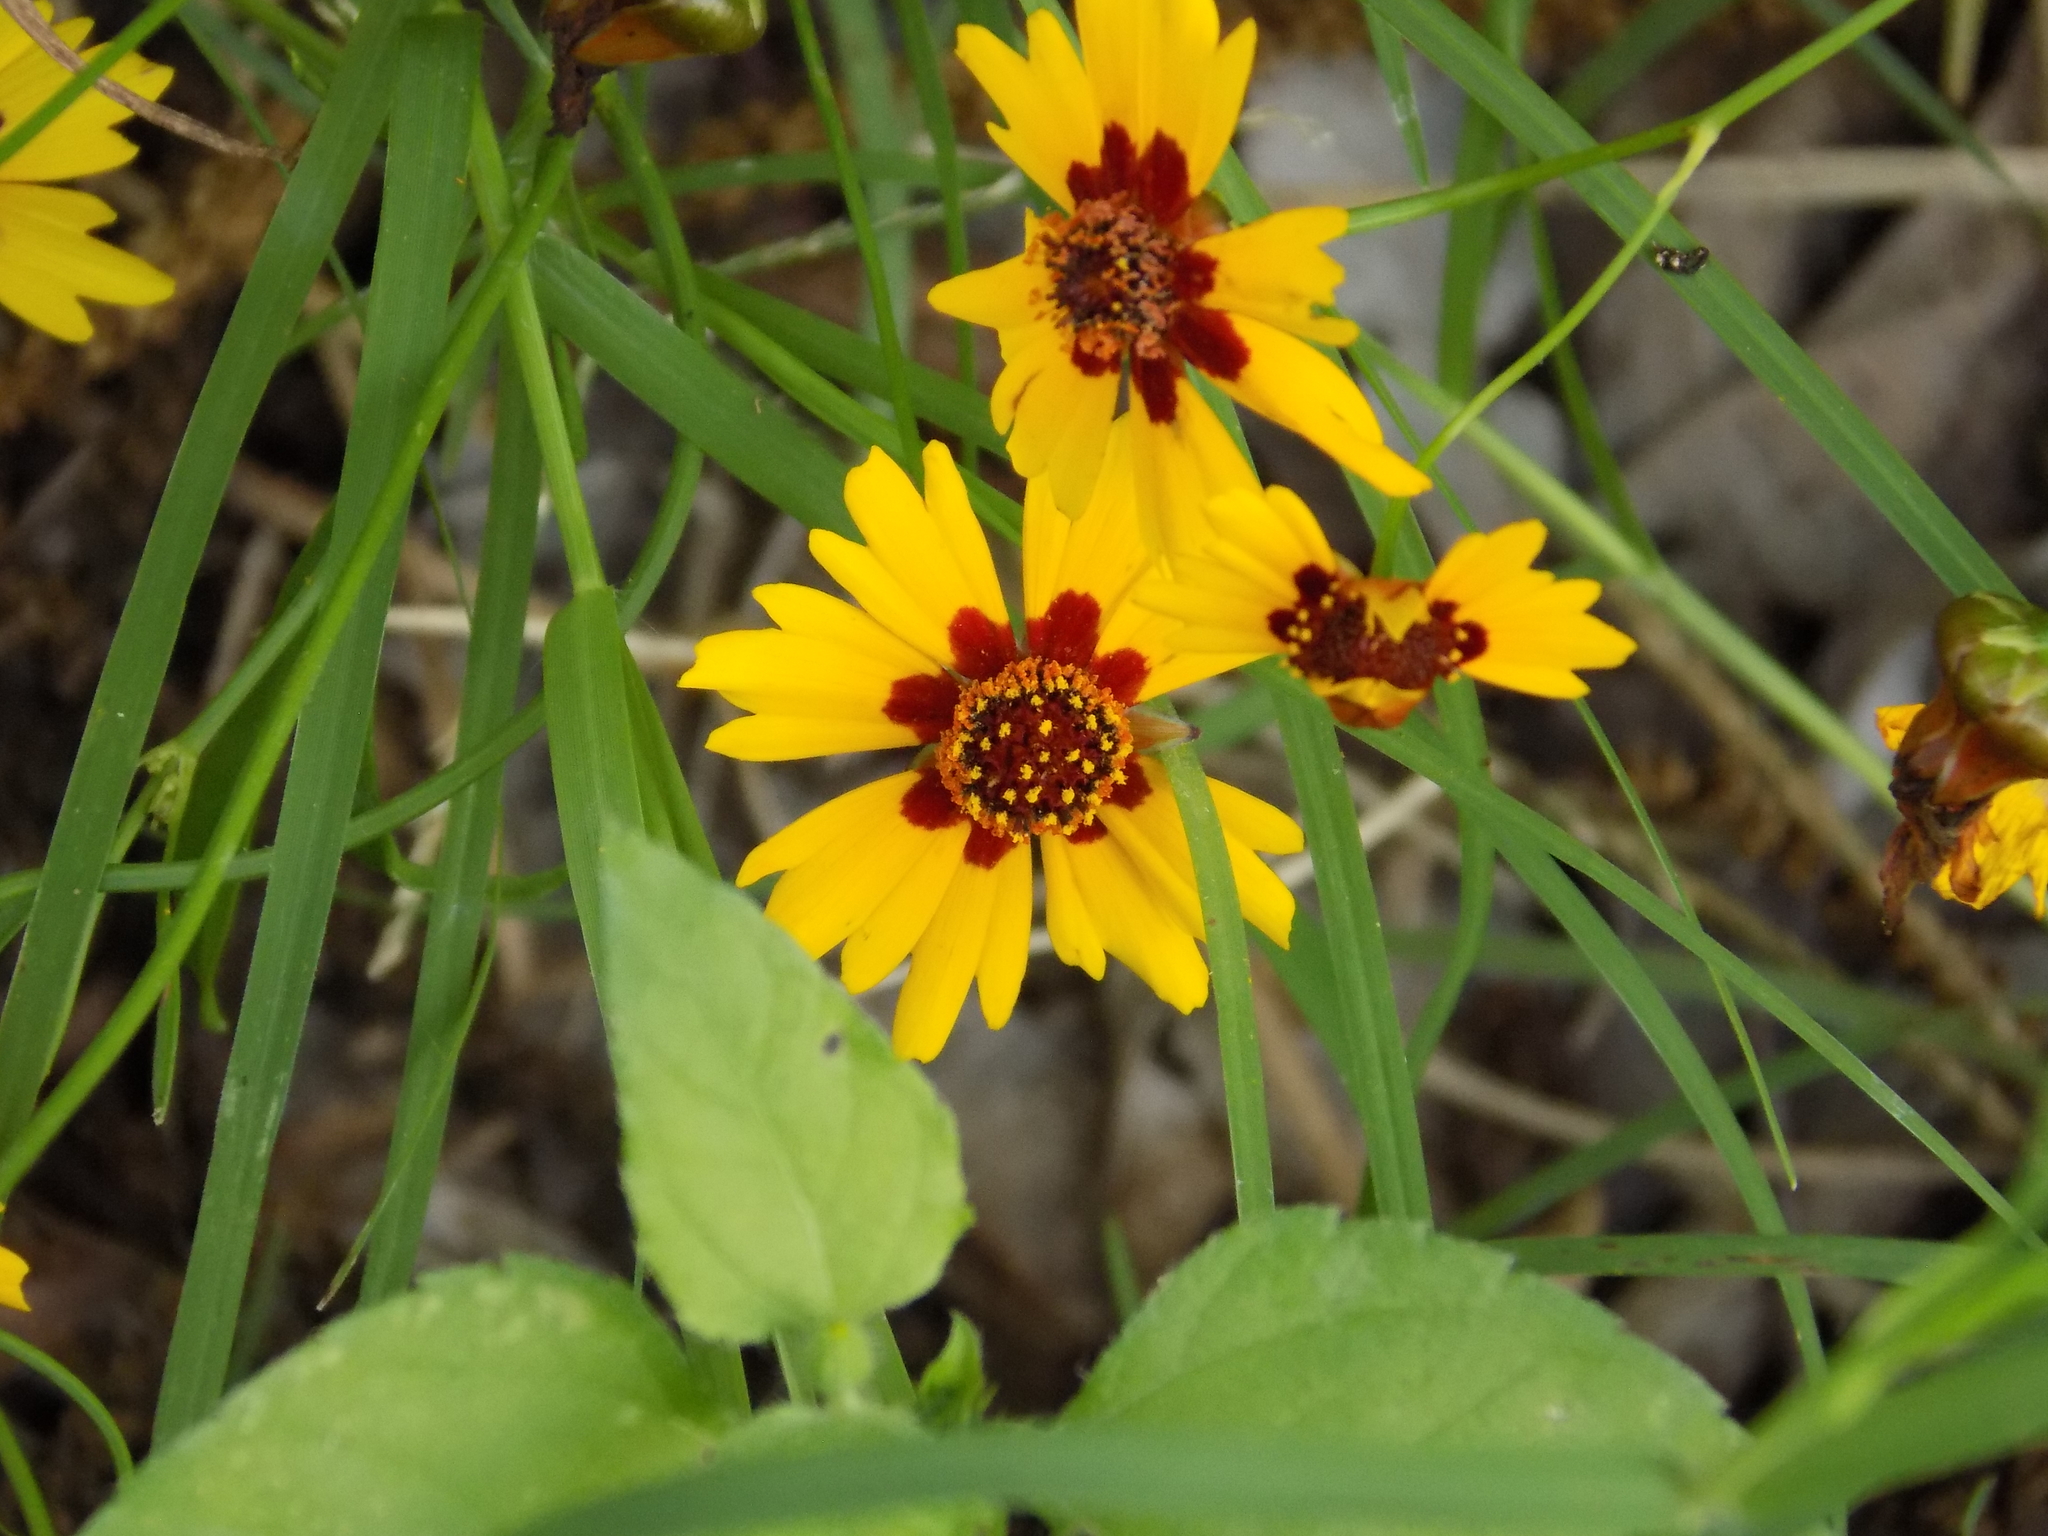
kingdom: Plantae
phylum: Tracheophyta
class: Magnoliopsida
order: Asterales
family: Asteraceae
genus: Coreopsis
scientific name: Coreopsis tinctoria
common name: Garden tickseed
